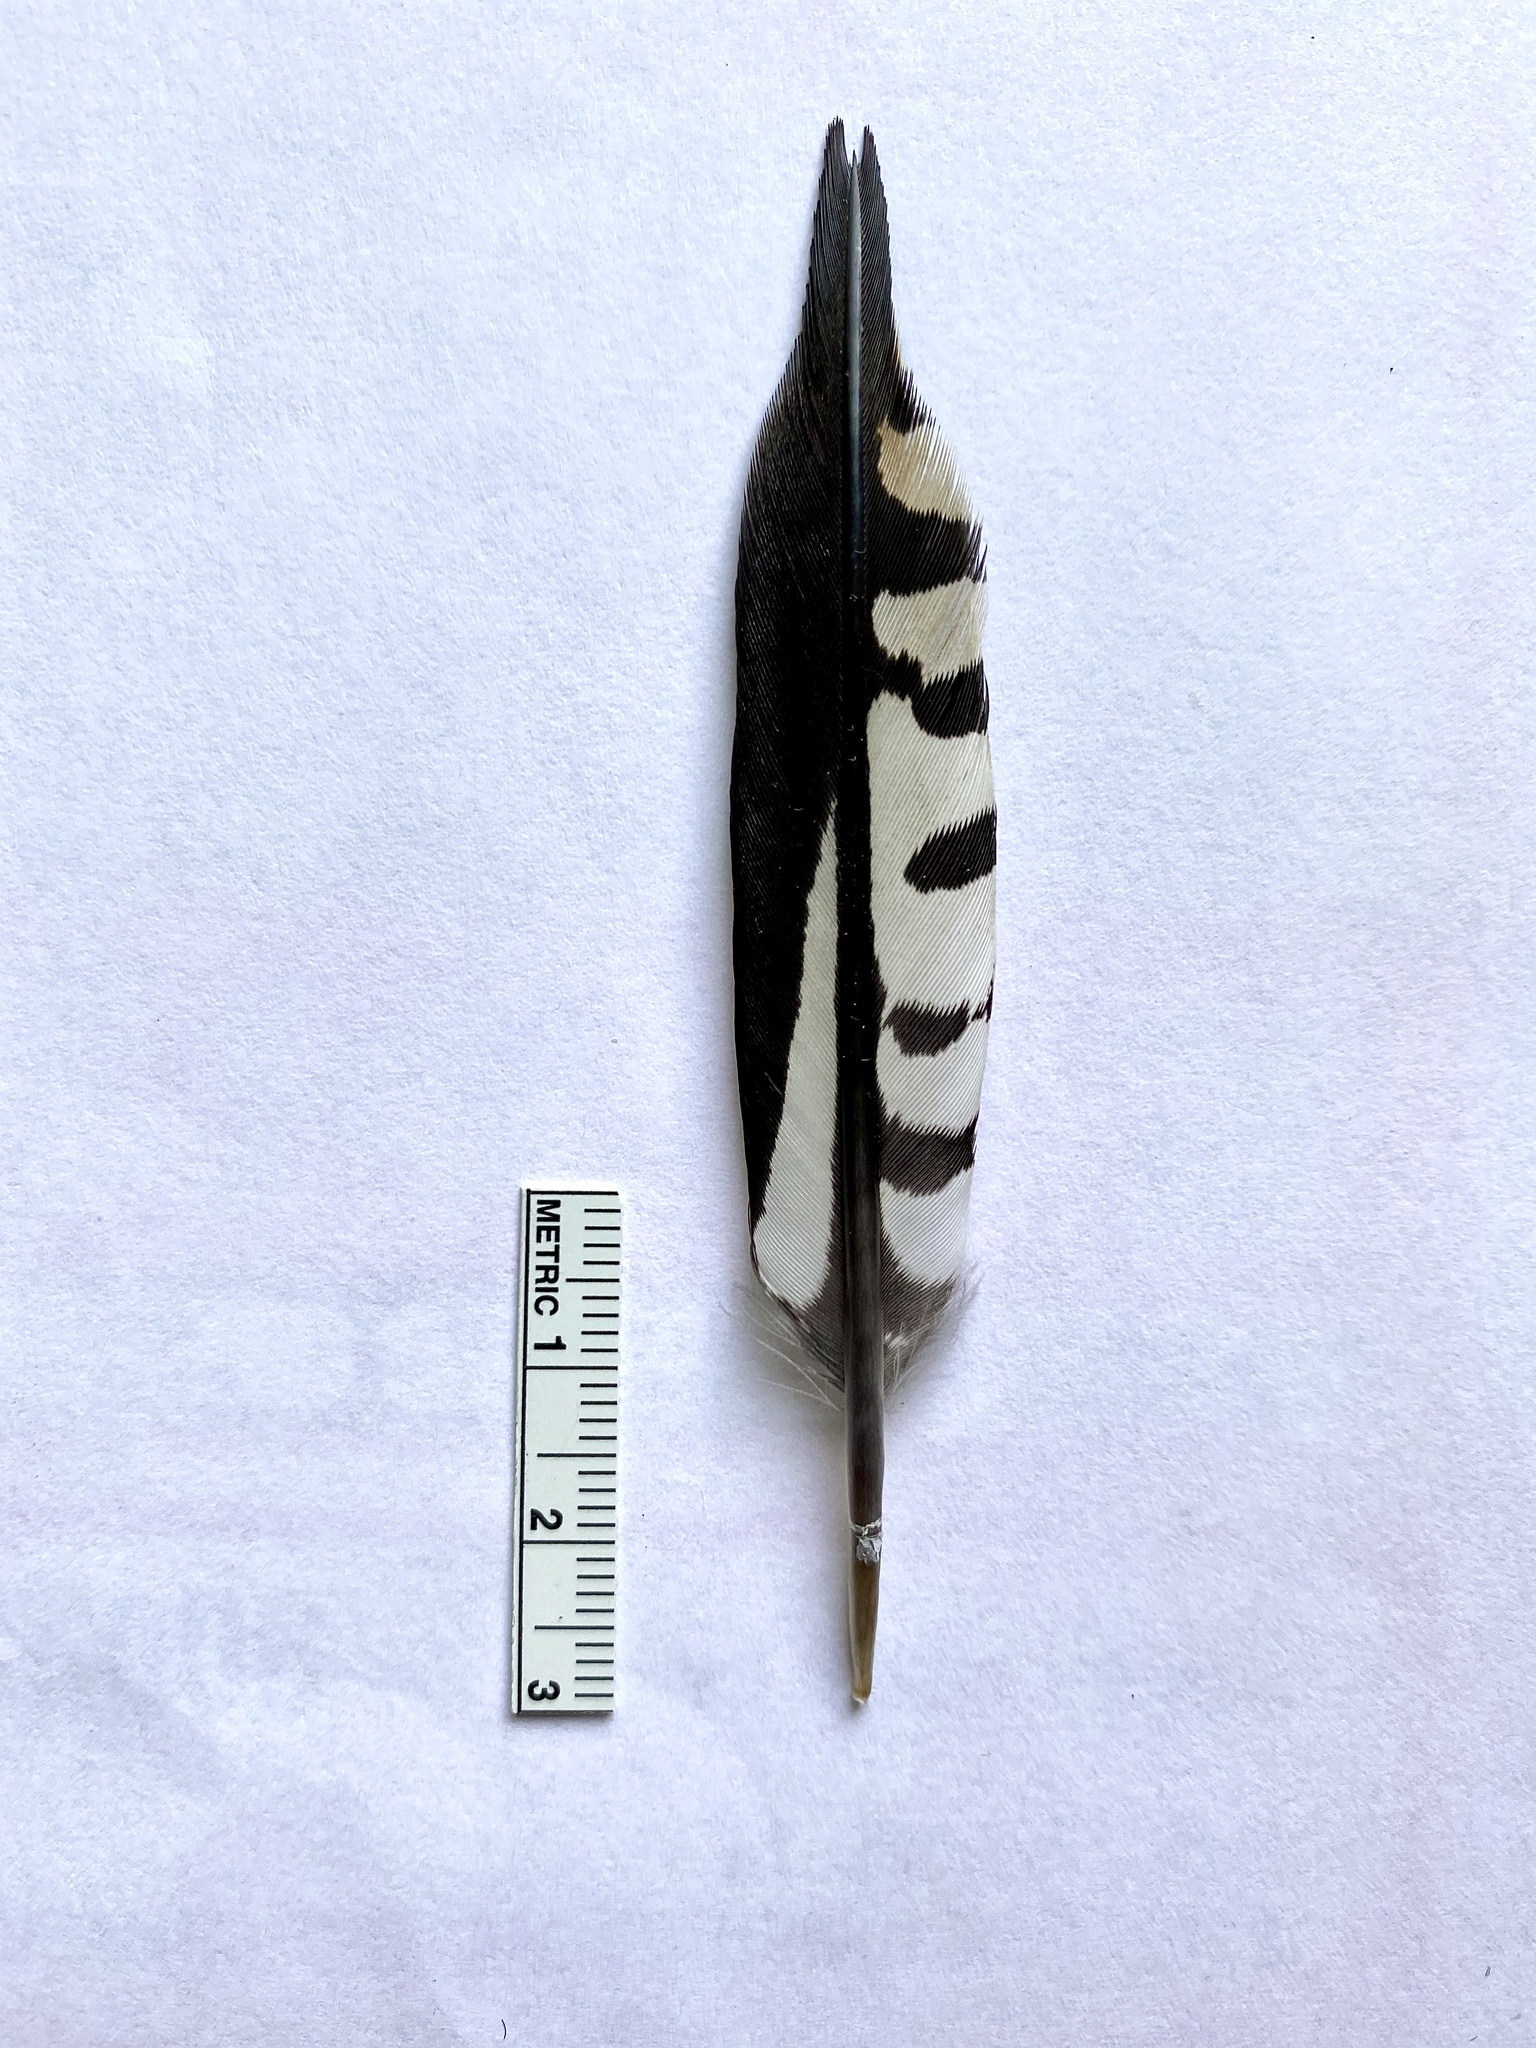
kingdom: Animalia
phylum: Chordata
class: Aves
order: Piciformes
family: Picidae
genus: Melanerpes
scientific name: Melanerpes carolinus
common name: Red-bellied woodpecker
